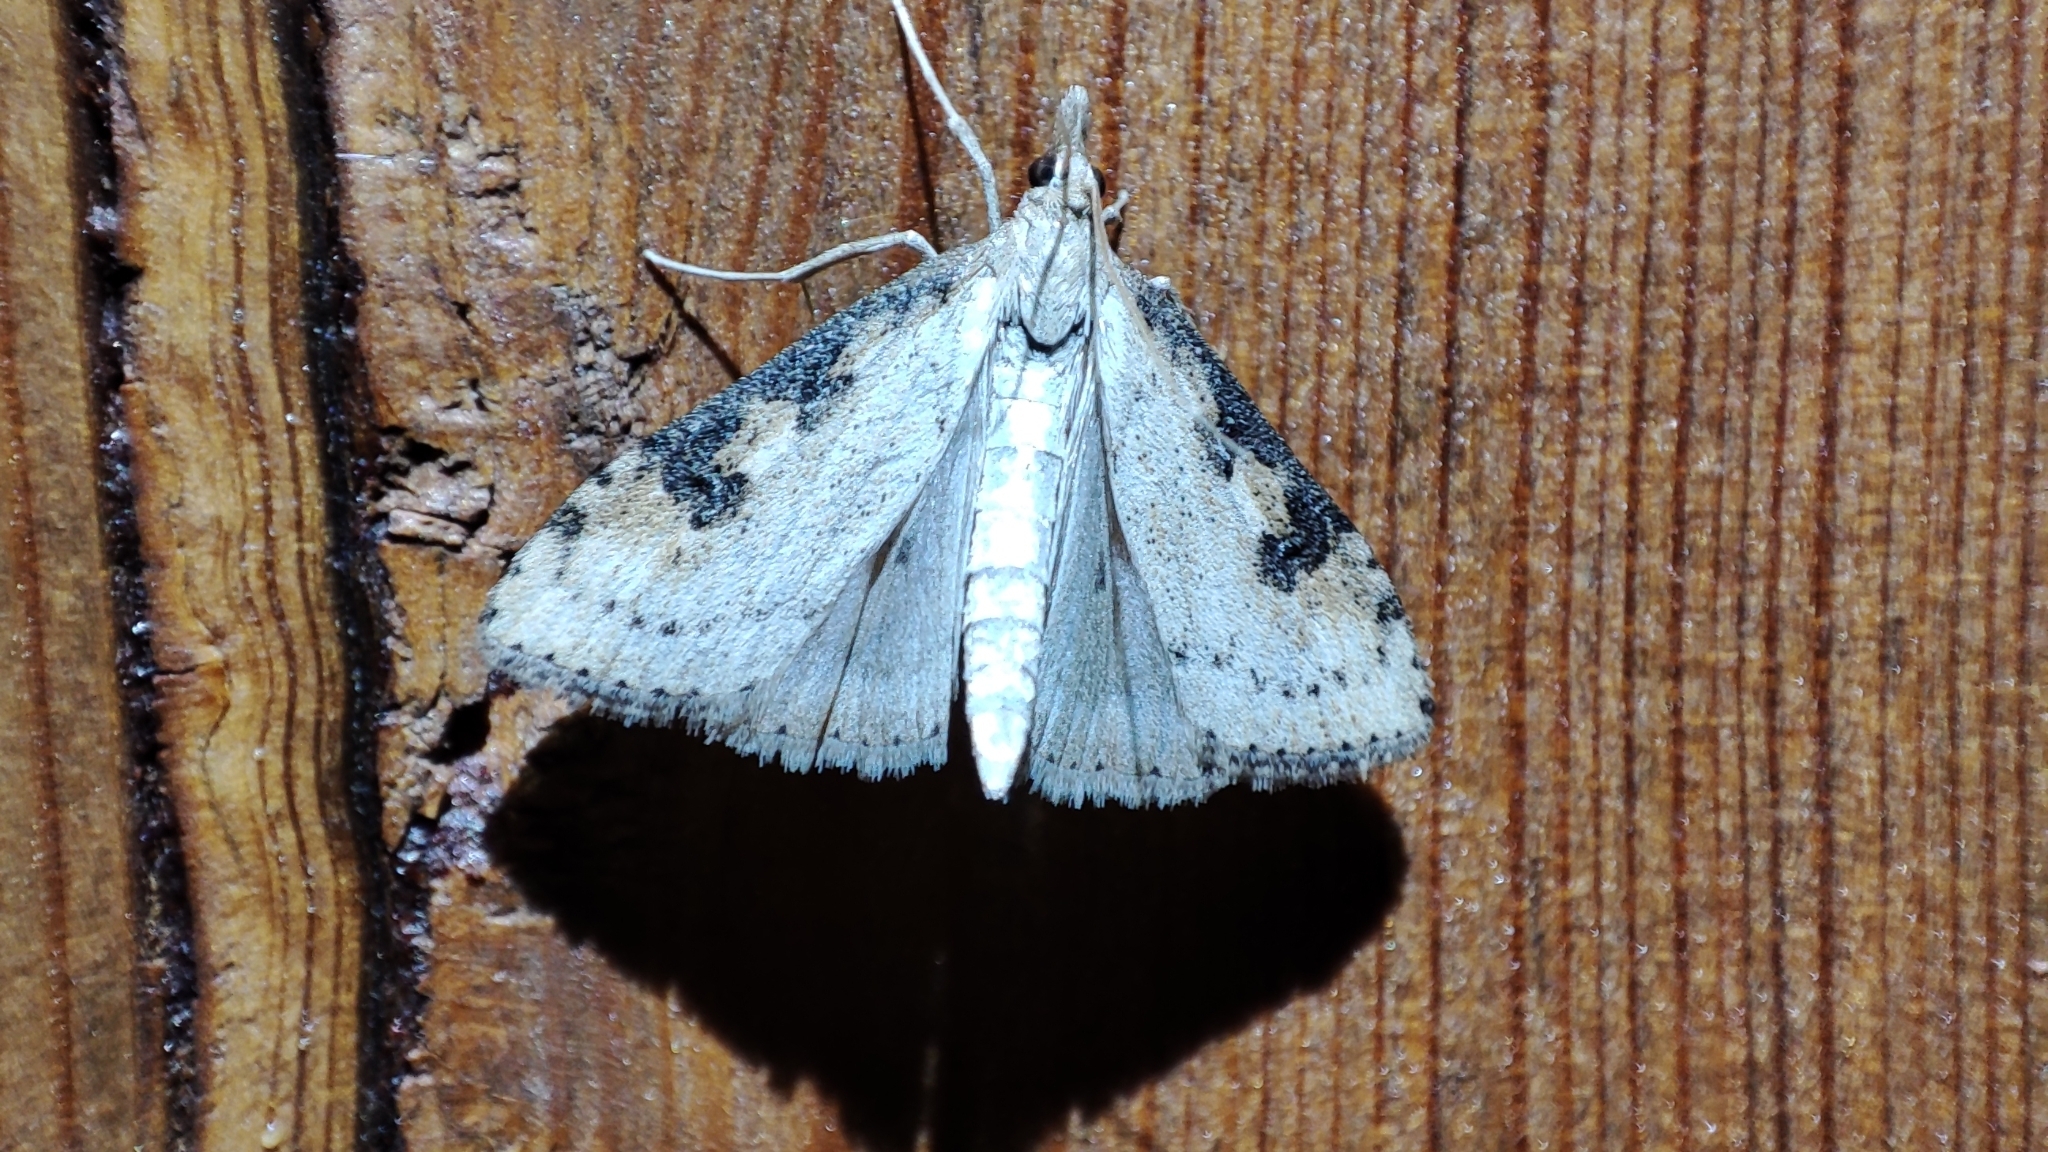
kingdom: Animalia
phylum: Arthropoda
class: Insecta
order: Lepidoptera
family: Crambidae
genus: Udea
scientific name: Udea costalis
